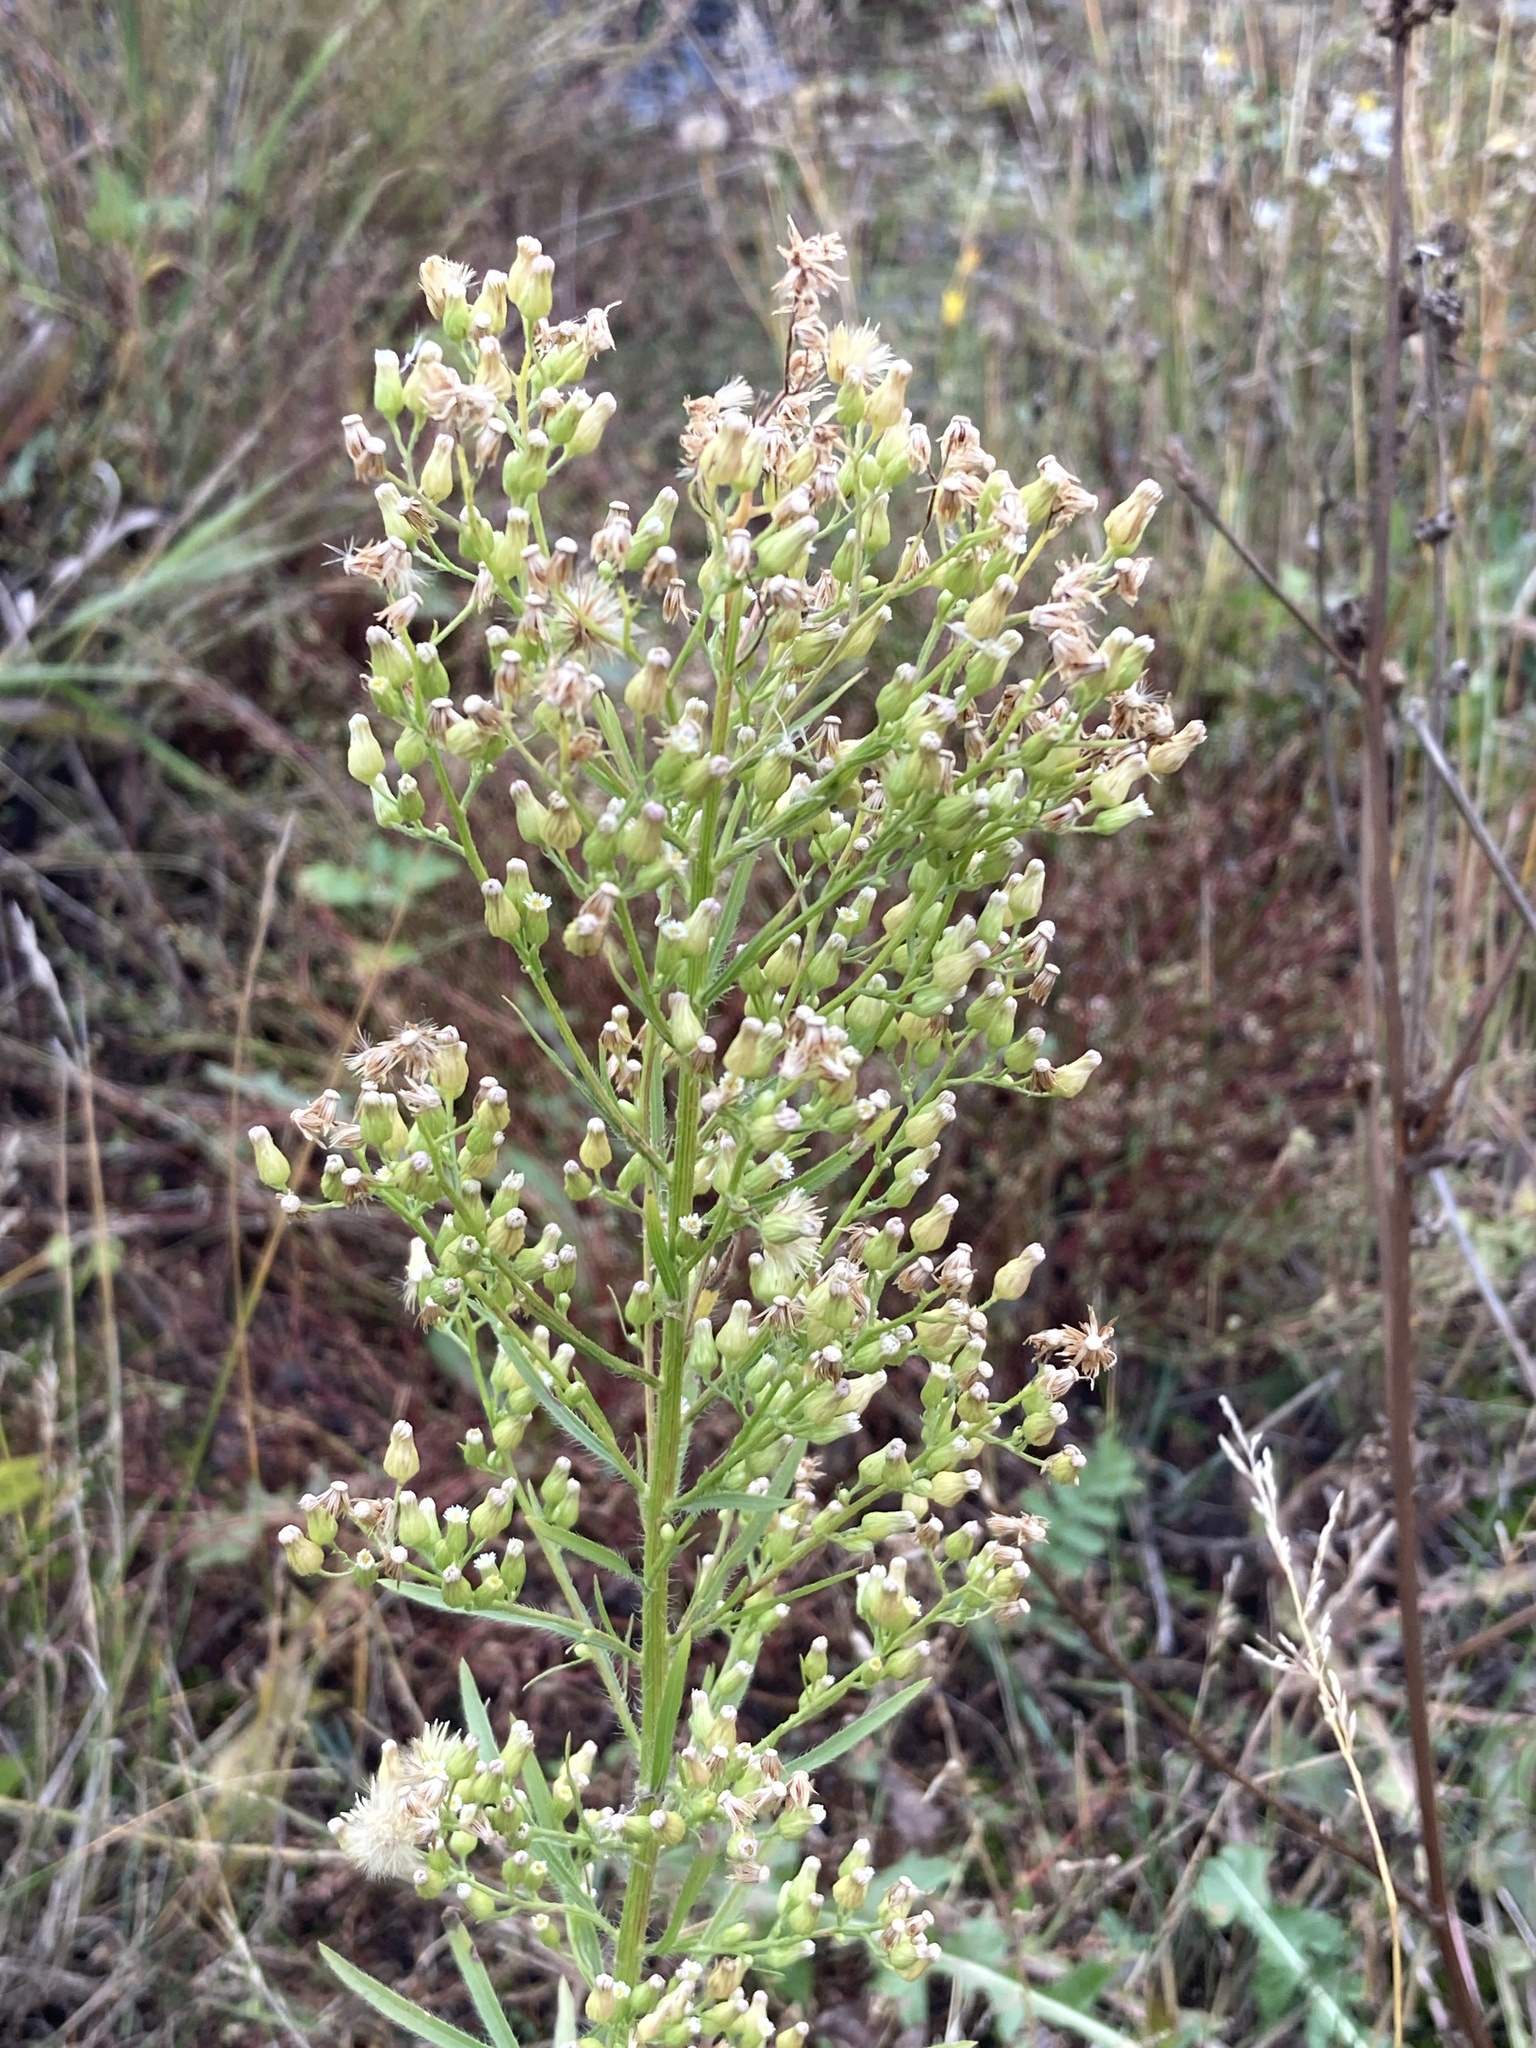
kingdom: Plantae
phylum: Tracheophyta
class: Magnoliopsida
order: Asterales
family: Asteraceae
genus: Erigeron
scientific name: Erigeron canadensis
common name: Canadian fleabane
